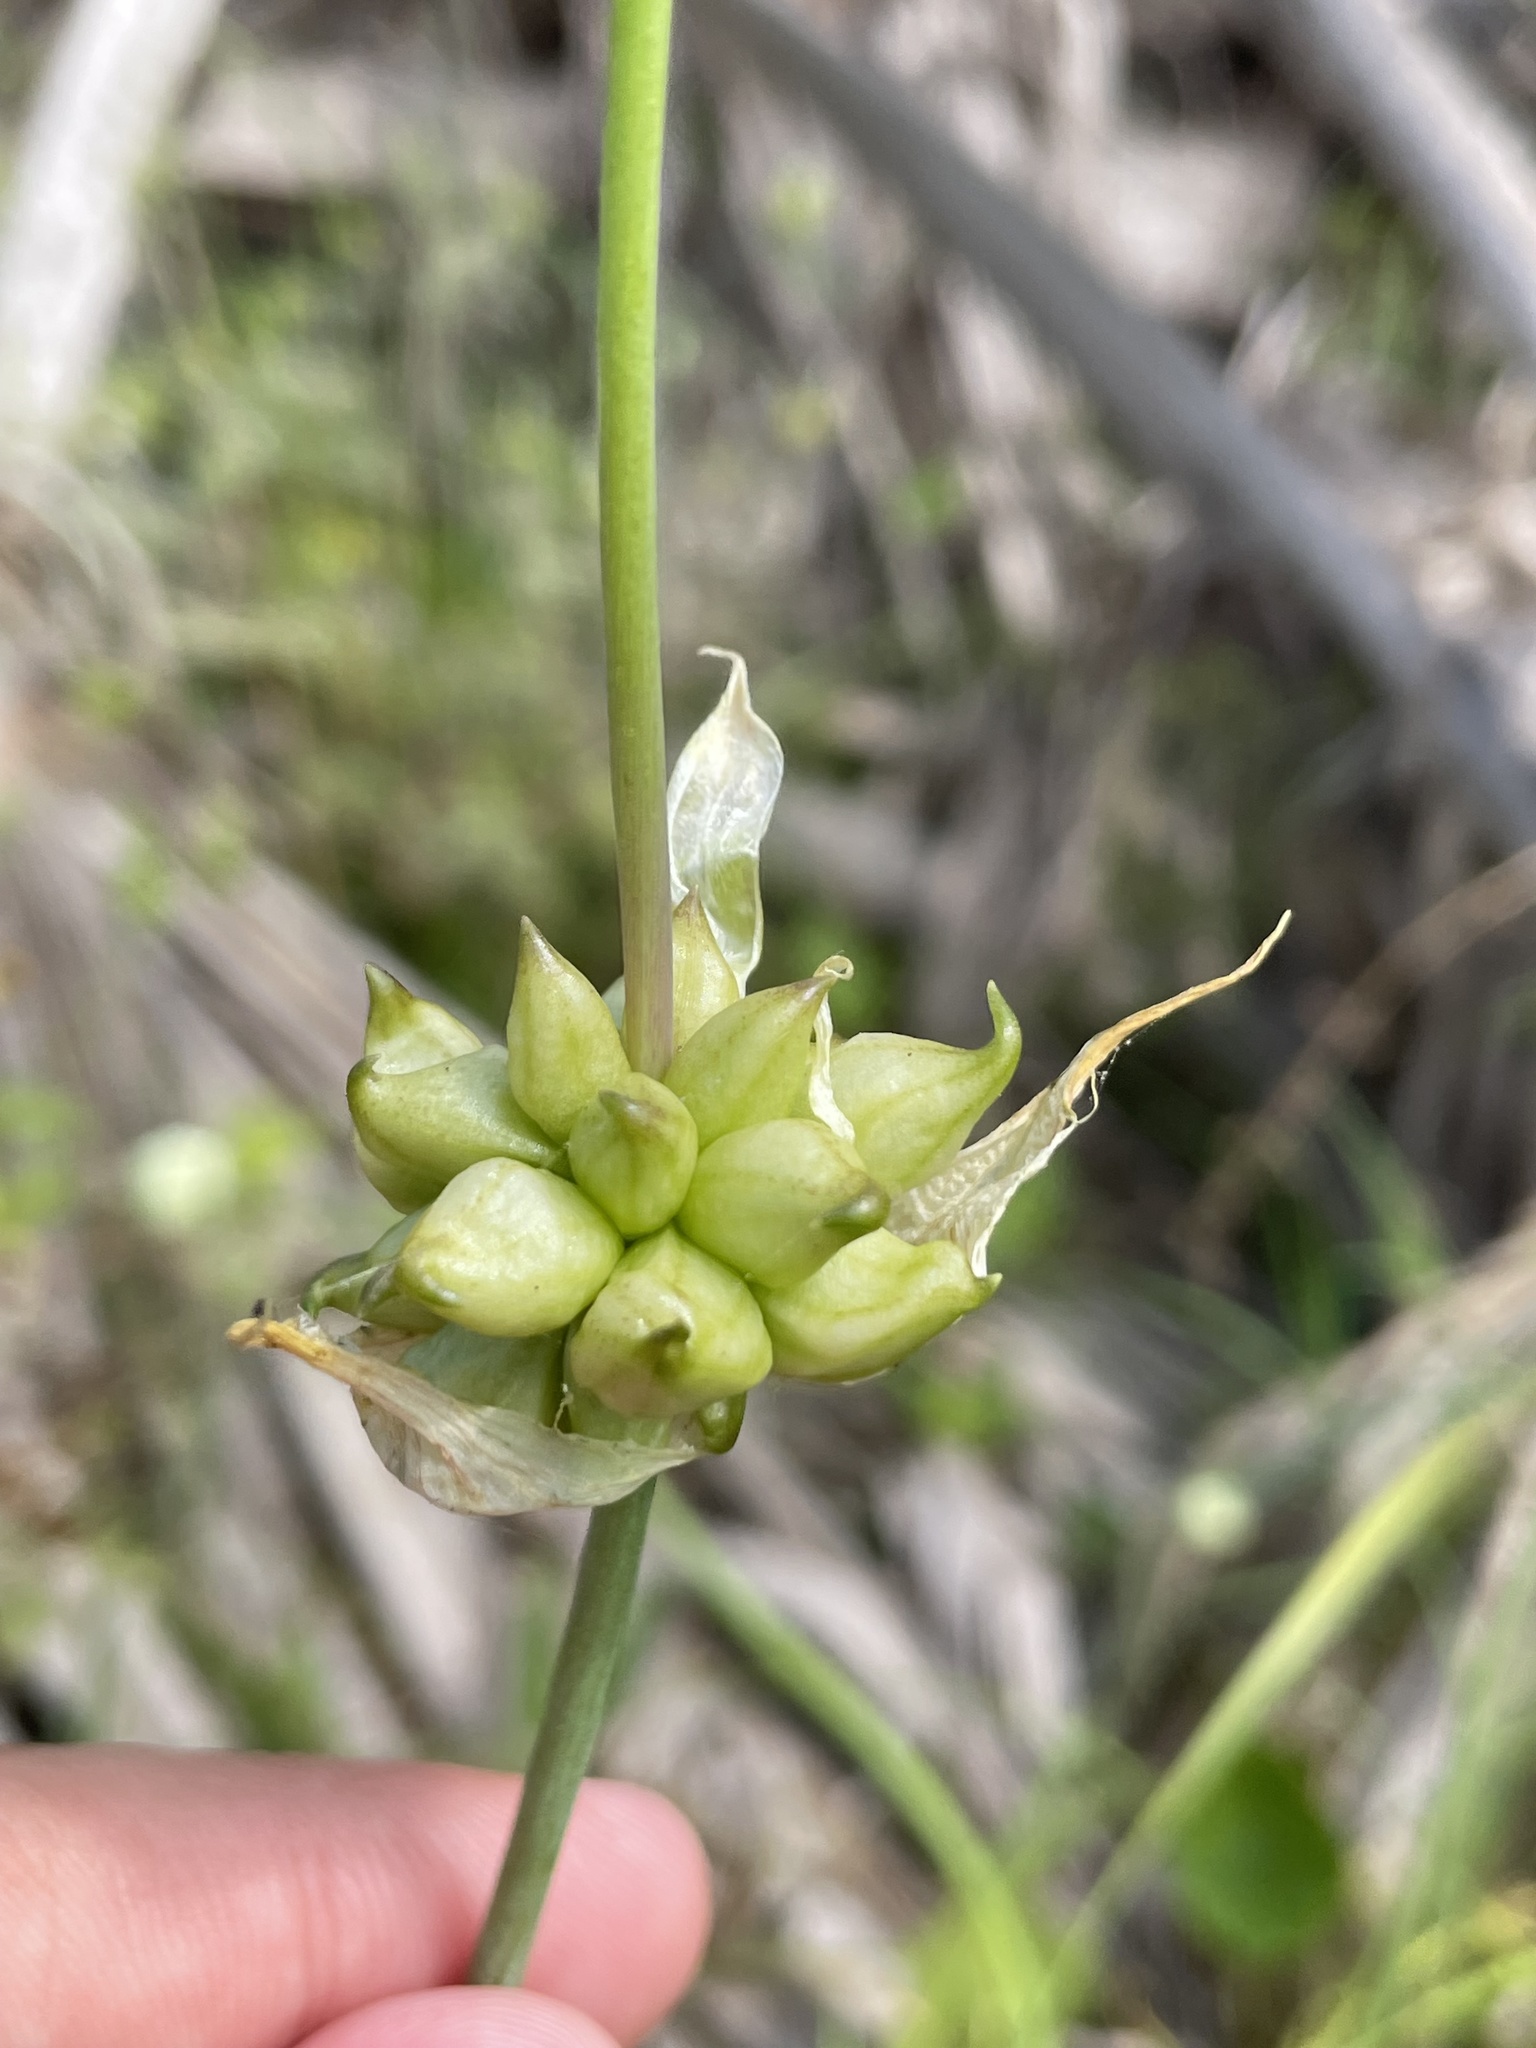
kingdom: Plantae
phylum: Tracheophyta
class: Liliopsida
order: Asparagales
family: Amaryllidaceae
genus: Allium
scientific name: Allium canadense
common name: Meadow garlic
